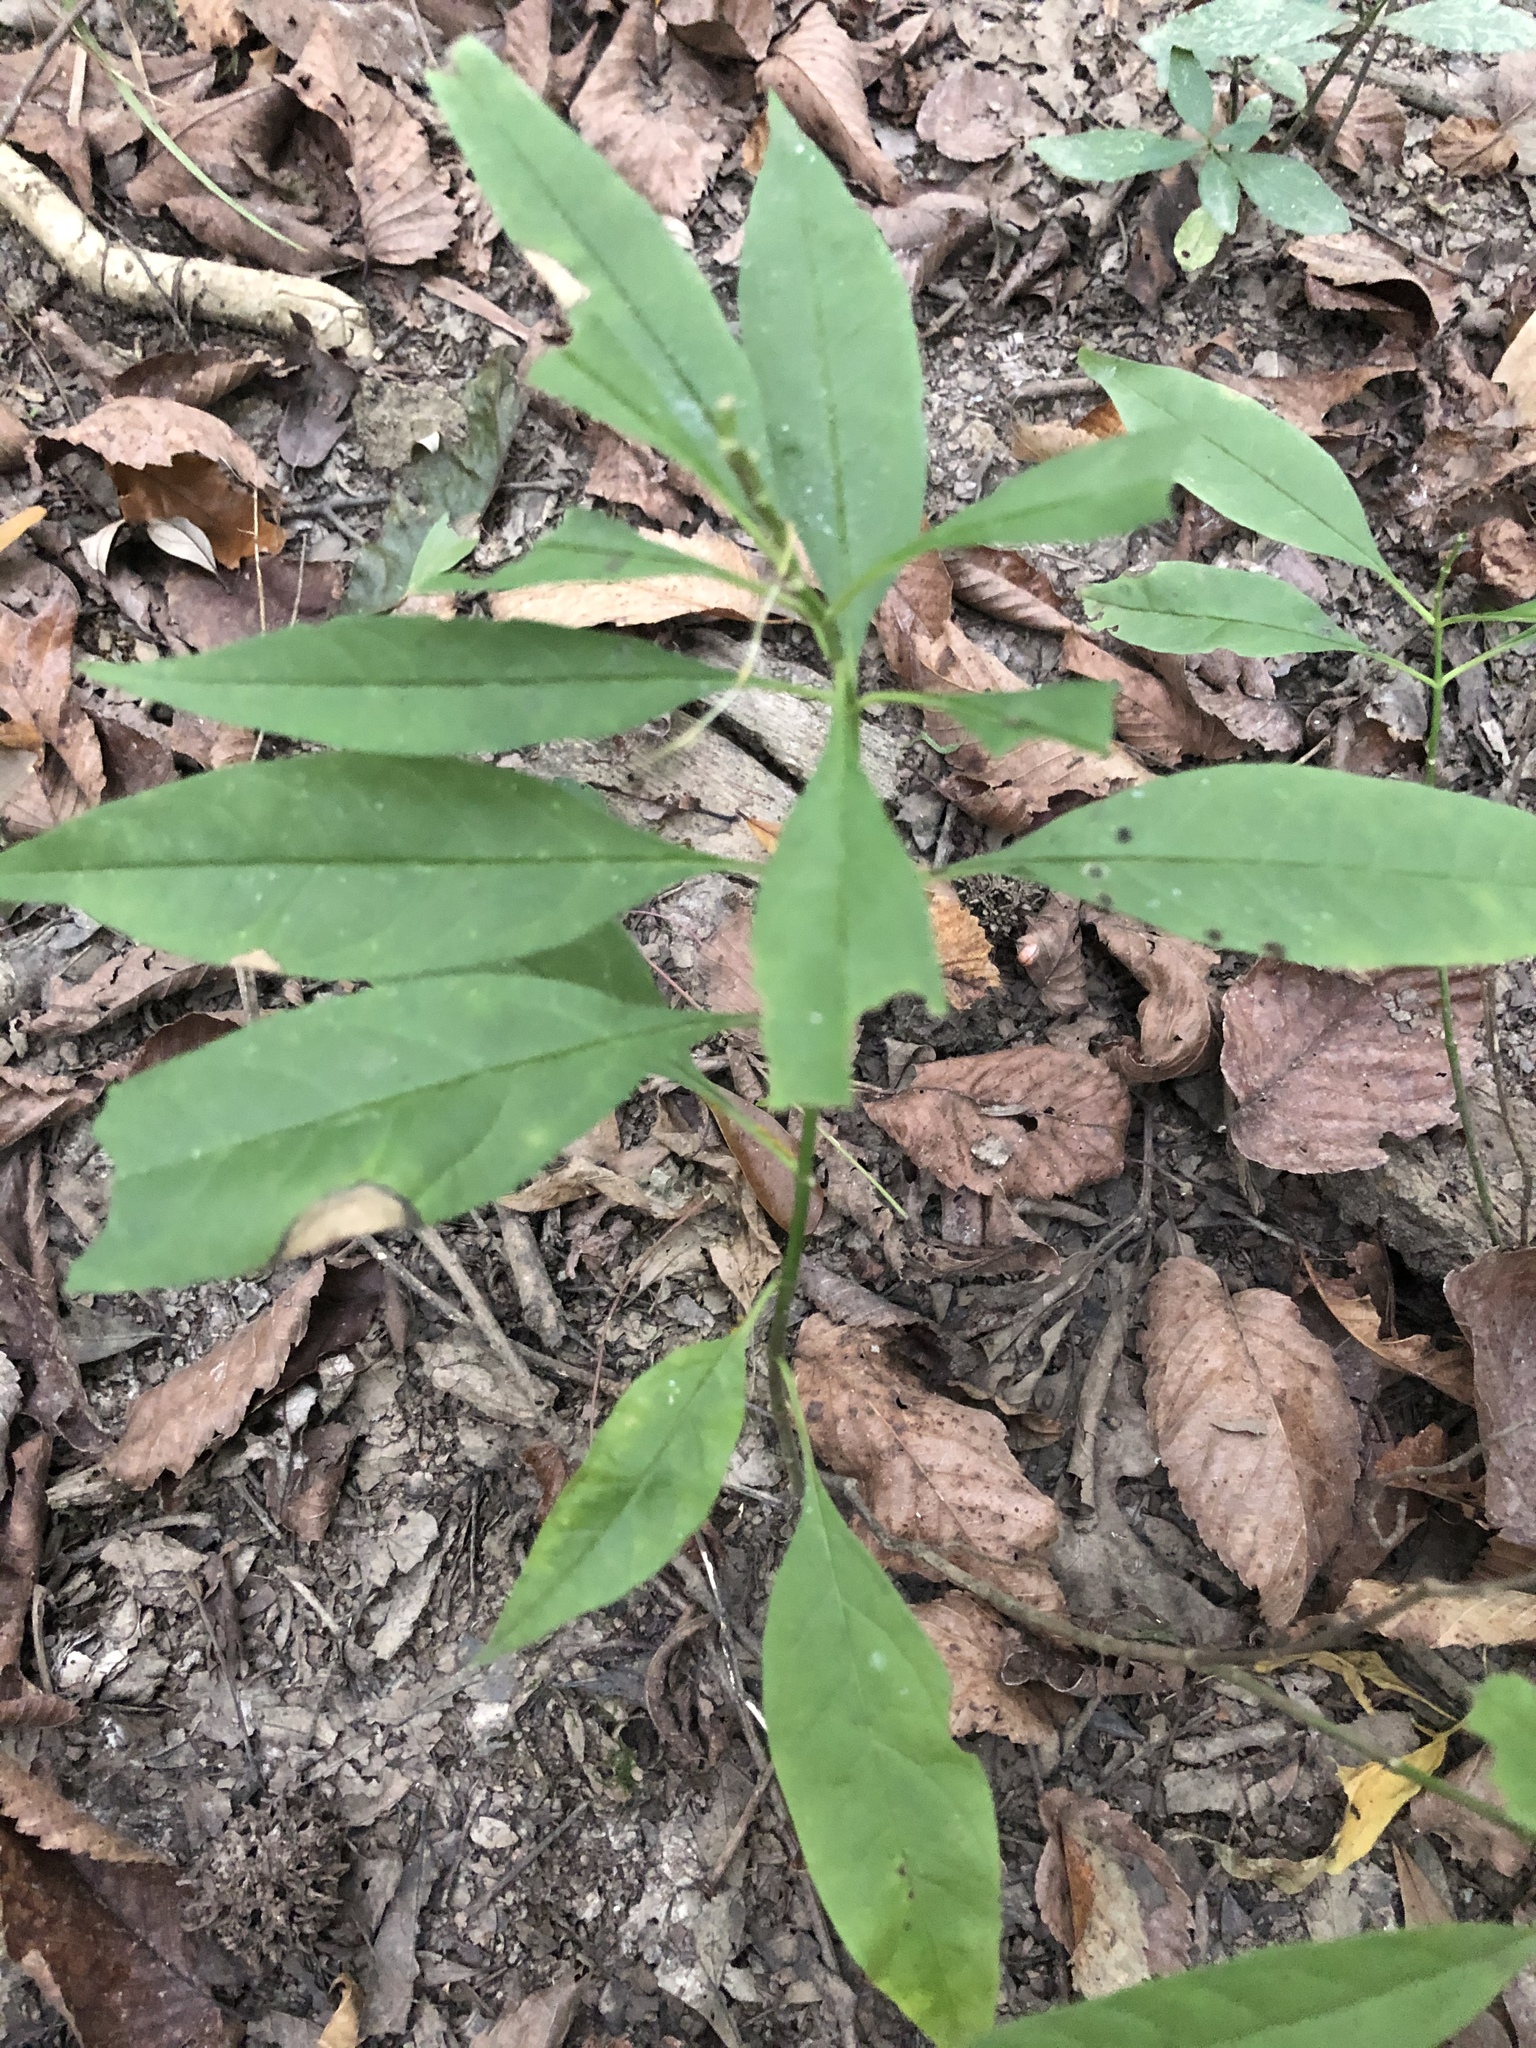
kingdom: Plantae
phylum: Tracheophyta
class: Magnoliopsida
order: Gentianales
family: Apocynaceae
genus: Asclepias
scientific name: Asclepias perennis
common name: Smooth-seed milkweed
